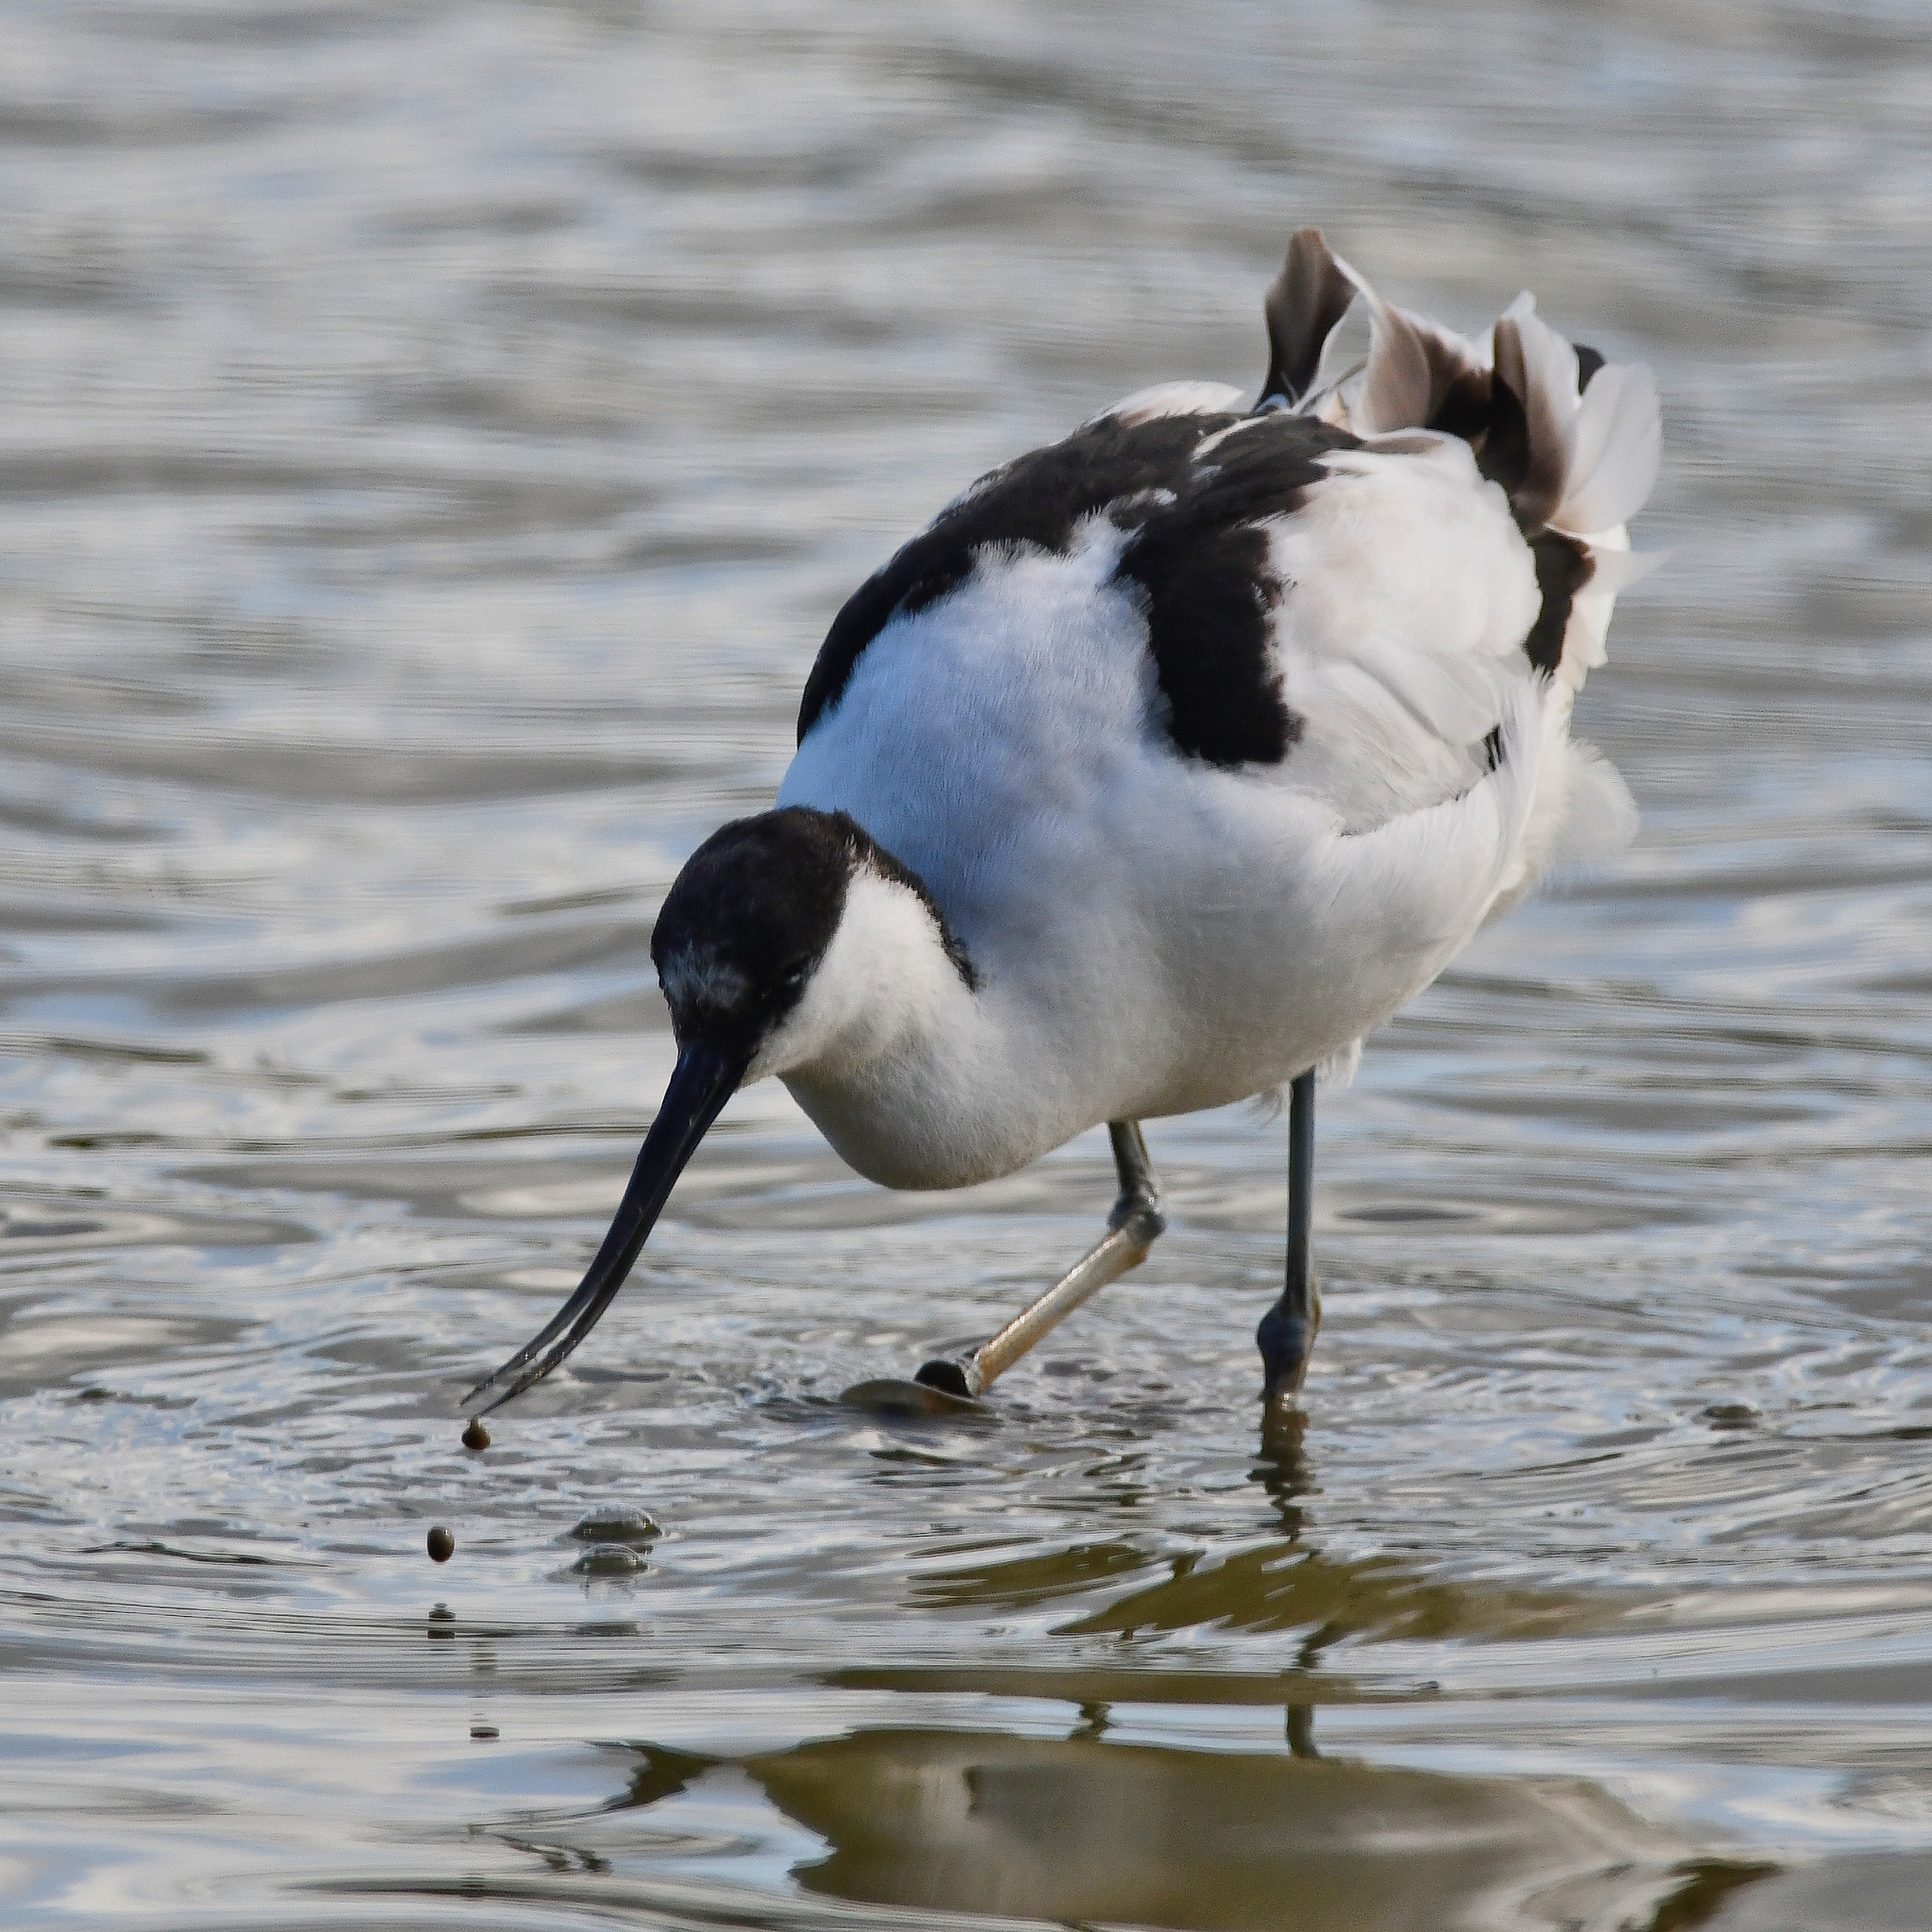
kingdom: Animalia
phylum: Chordata
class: Aves
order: Charadriiformes
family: Recurvirostridae
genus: Recurvirostra
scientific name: Recurvirostra avosetta
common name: Pied avocet
